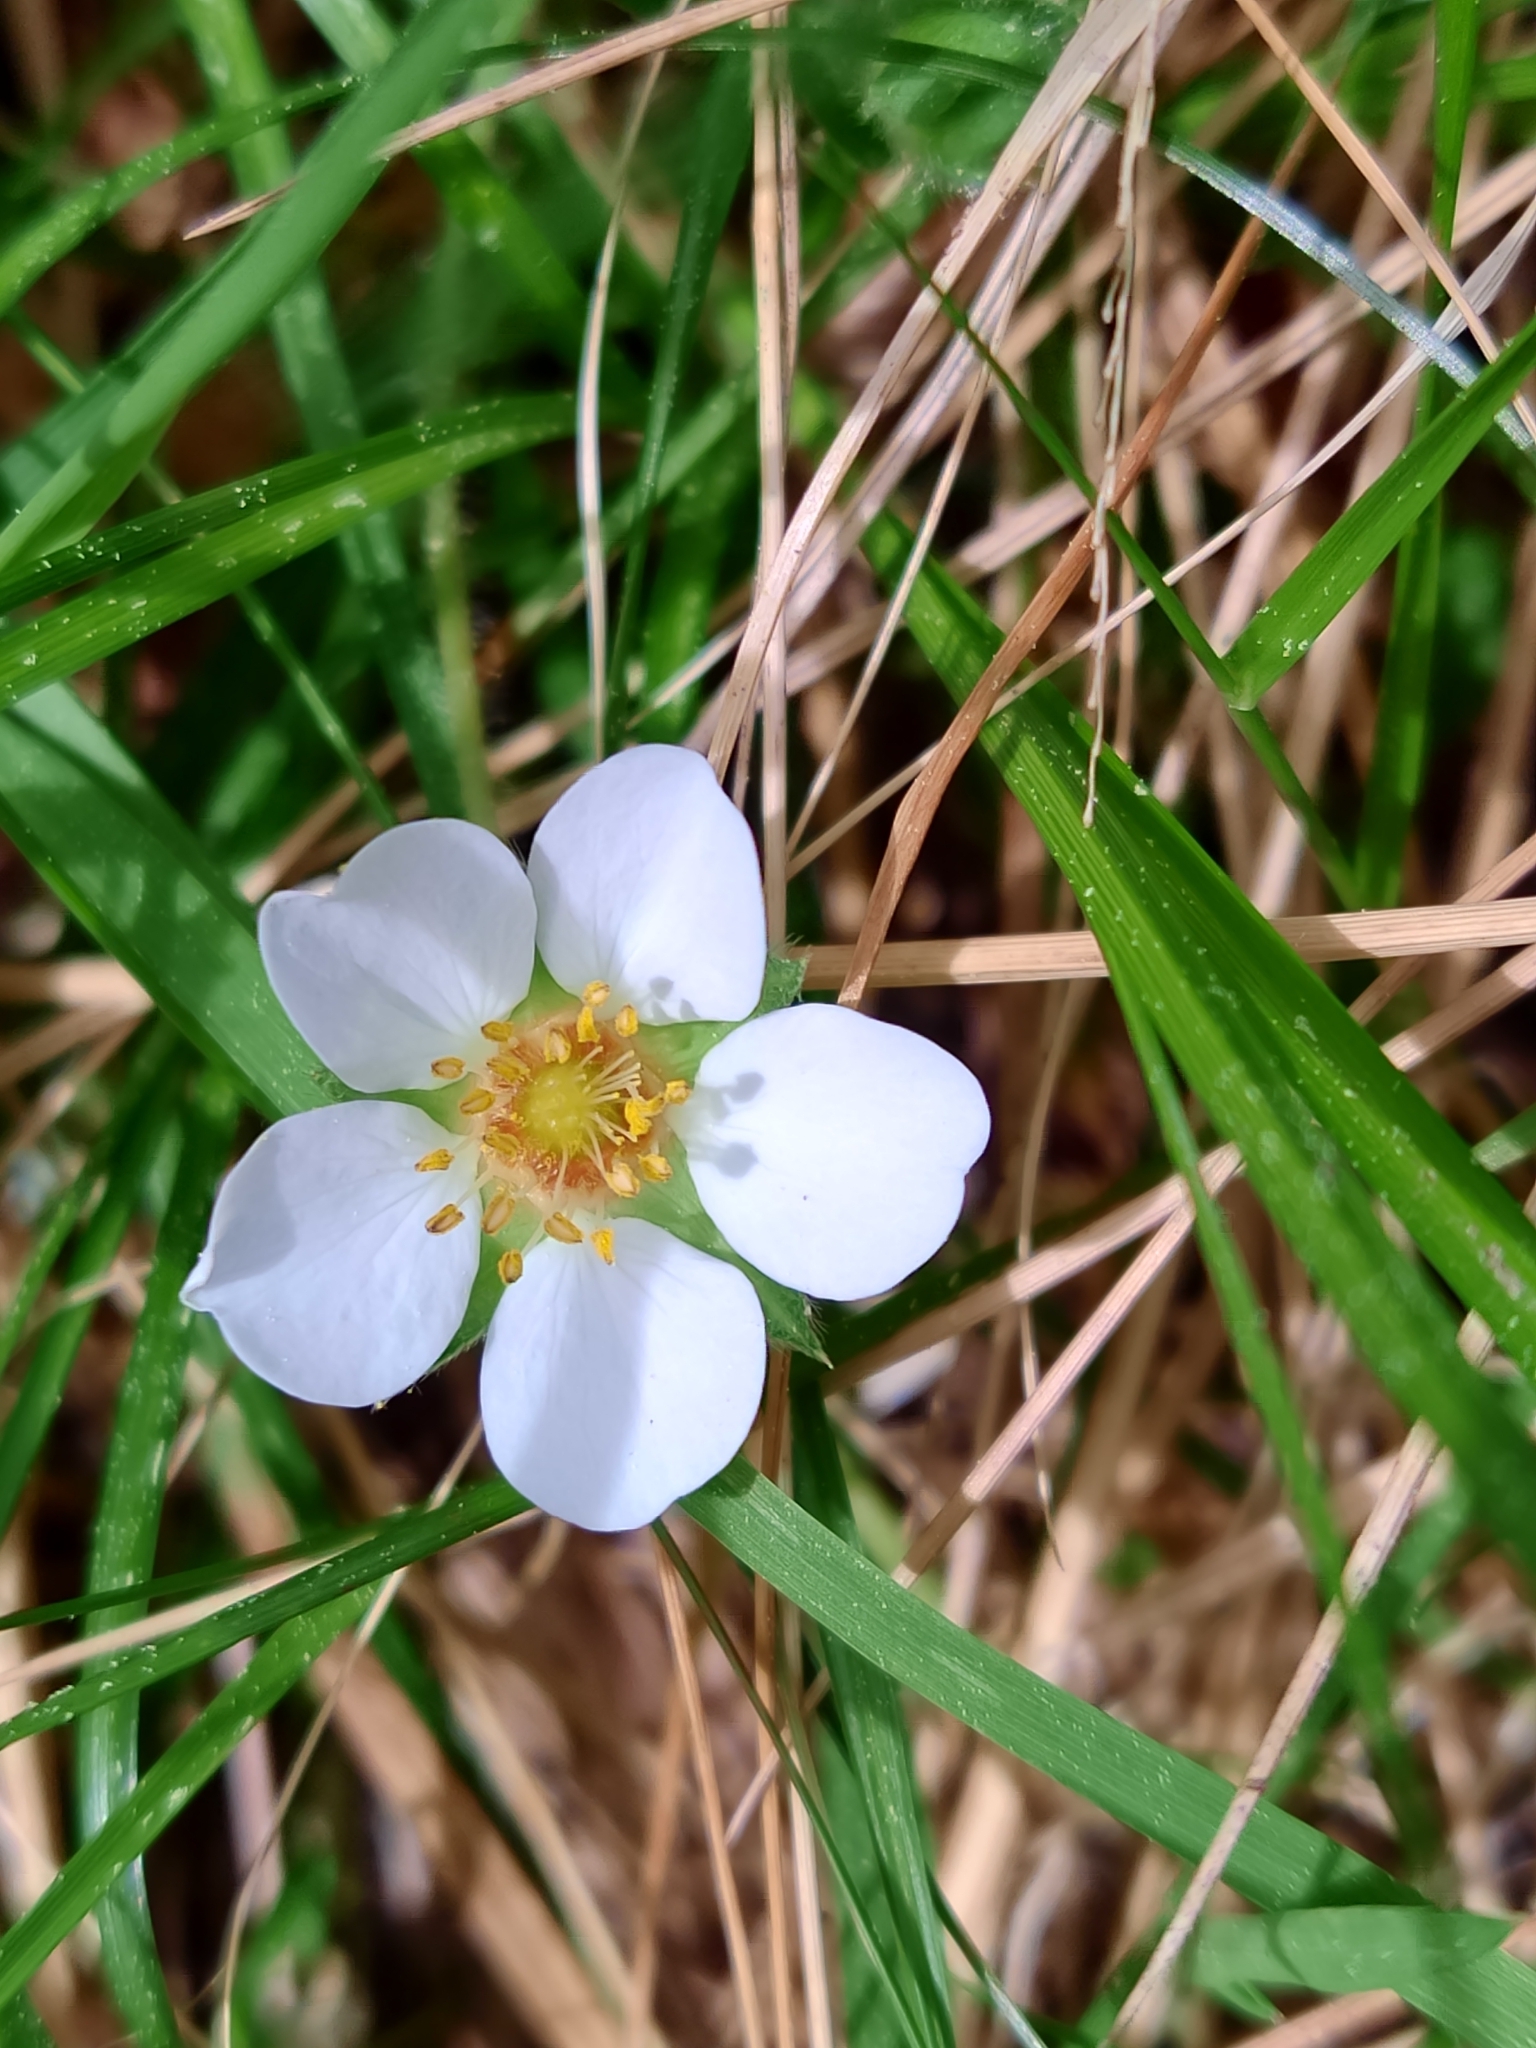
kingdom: Plantae
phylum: Tracheophyta
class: Magnoliopsida
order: Rosales
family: Rosaceae
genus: Potentilla
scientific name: Potentilla montana
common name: Mountain cinquefoil
